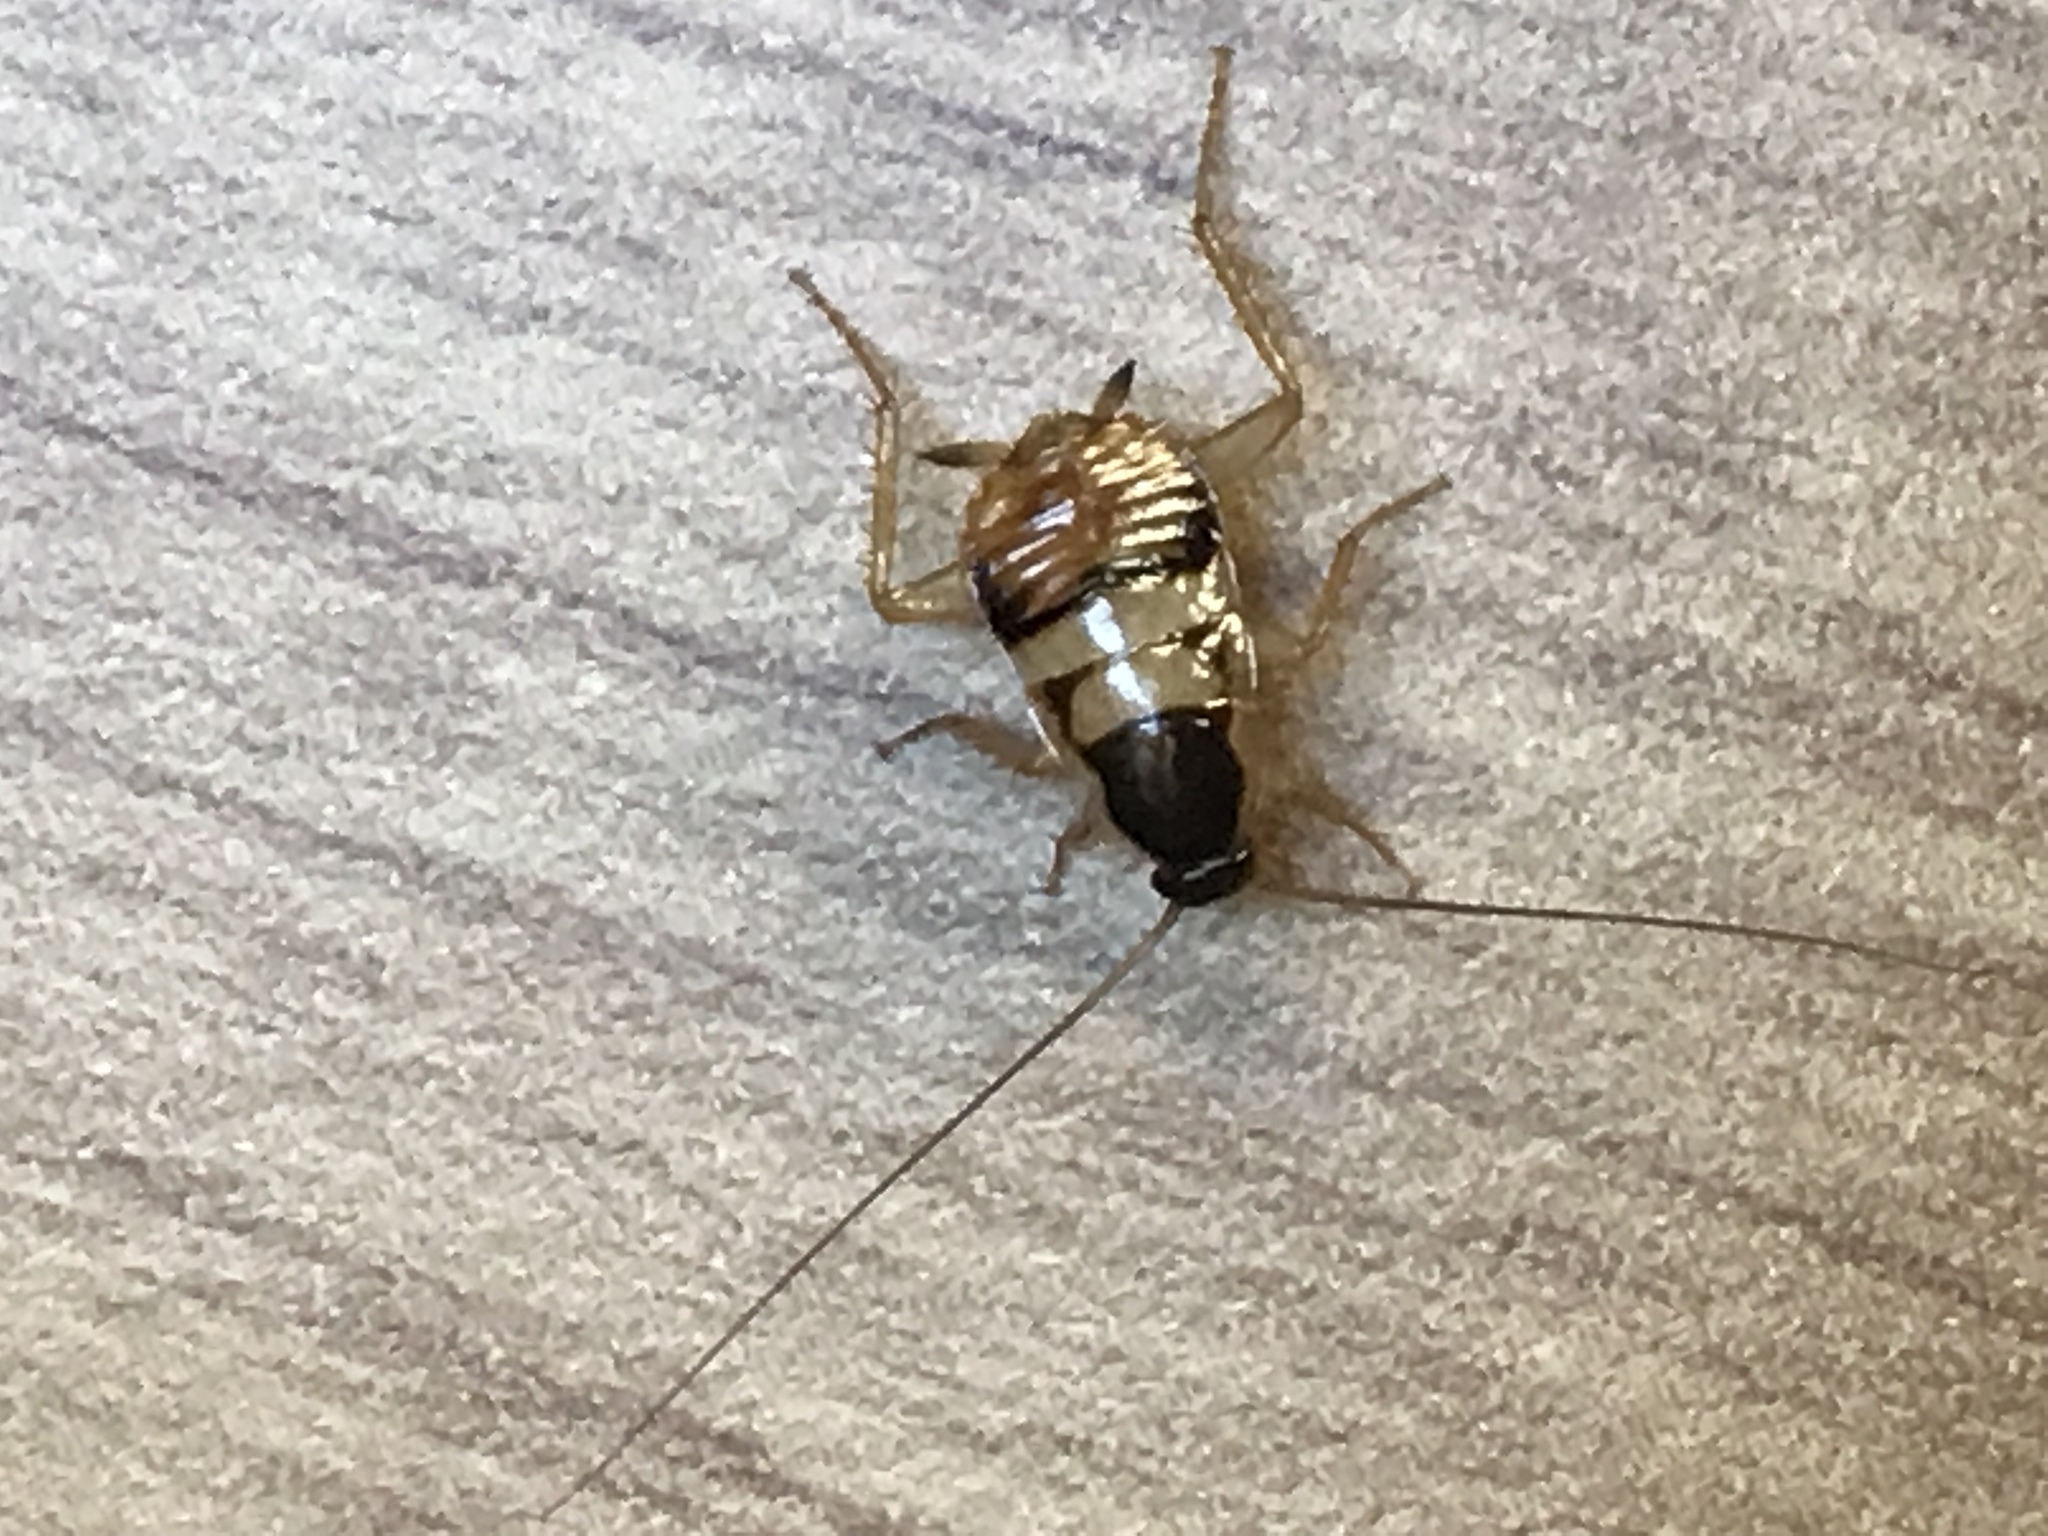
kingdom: Animalia
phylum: Arthropoda
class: Insecta
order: Blattodea
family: Ectobiidae
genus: Supella
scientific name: Supella longipalpa
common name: Brown-banded cockroach
